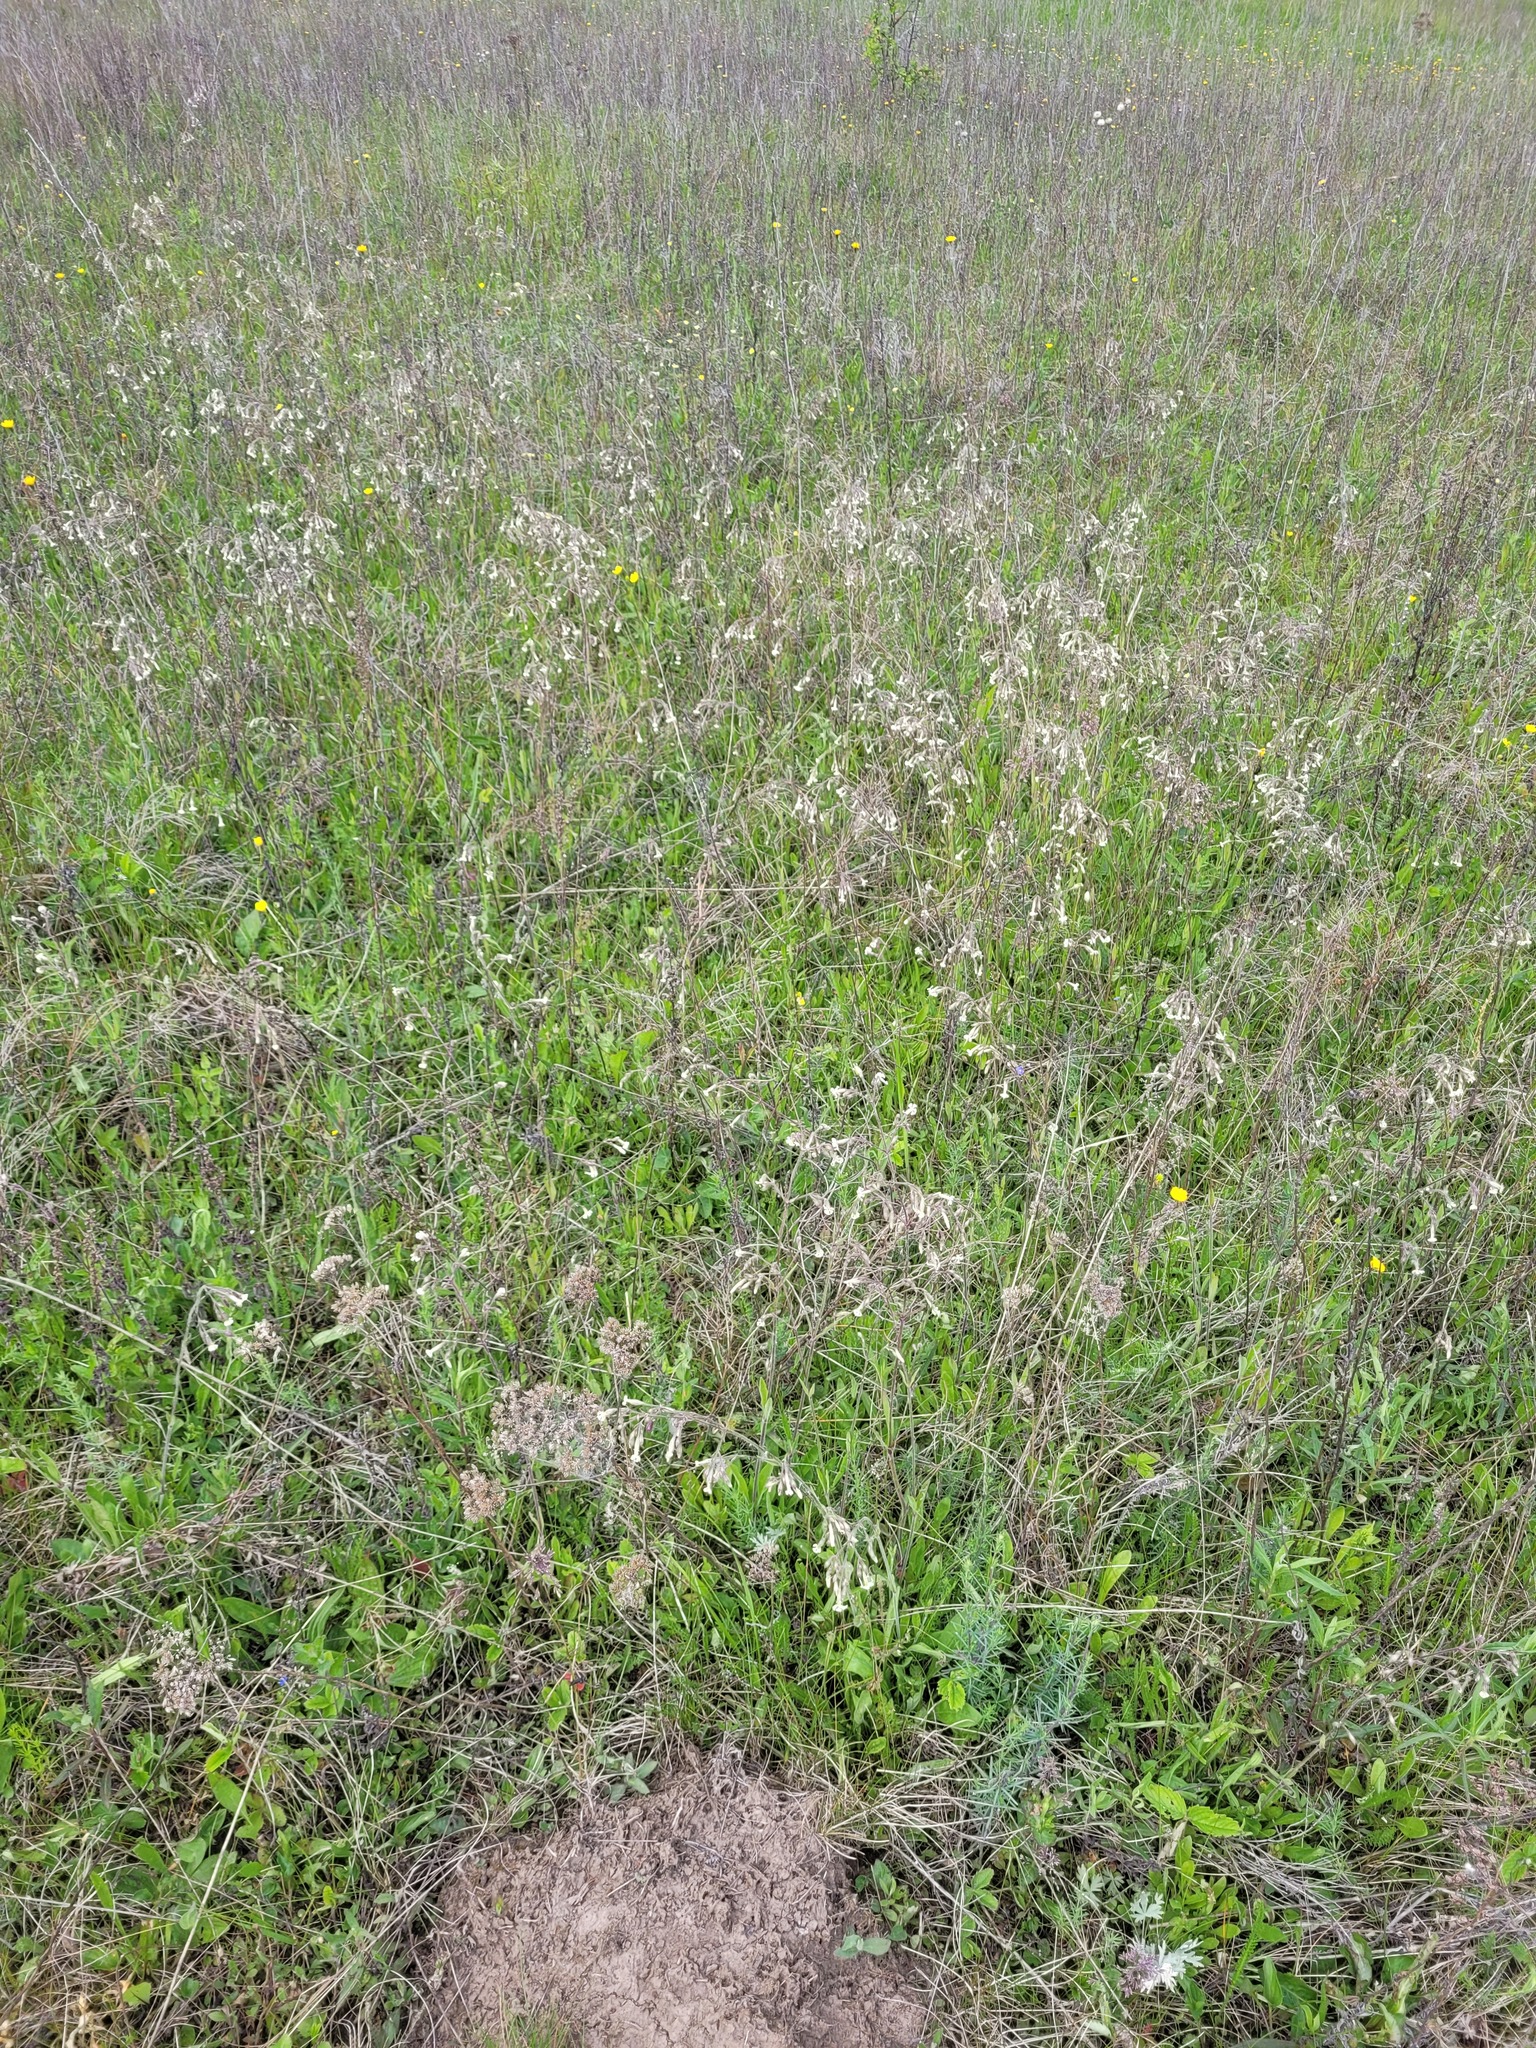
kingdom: Plantae
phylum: Tracheophyta
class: Magnoliopsida
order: Caryophyllales
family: Caryophyllaceae
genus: Silene
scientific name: Silene nutans
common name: Nottingham catchfly
